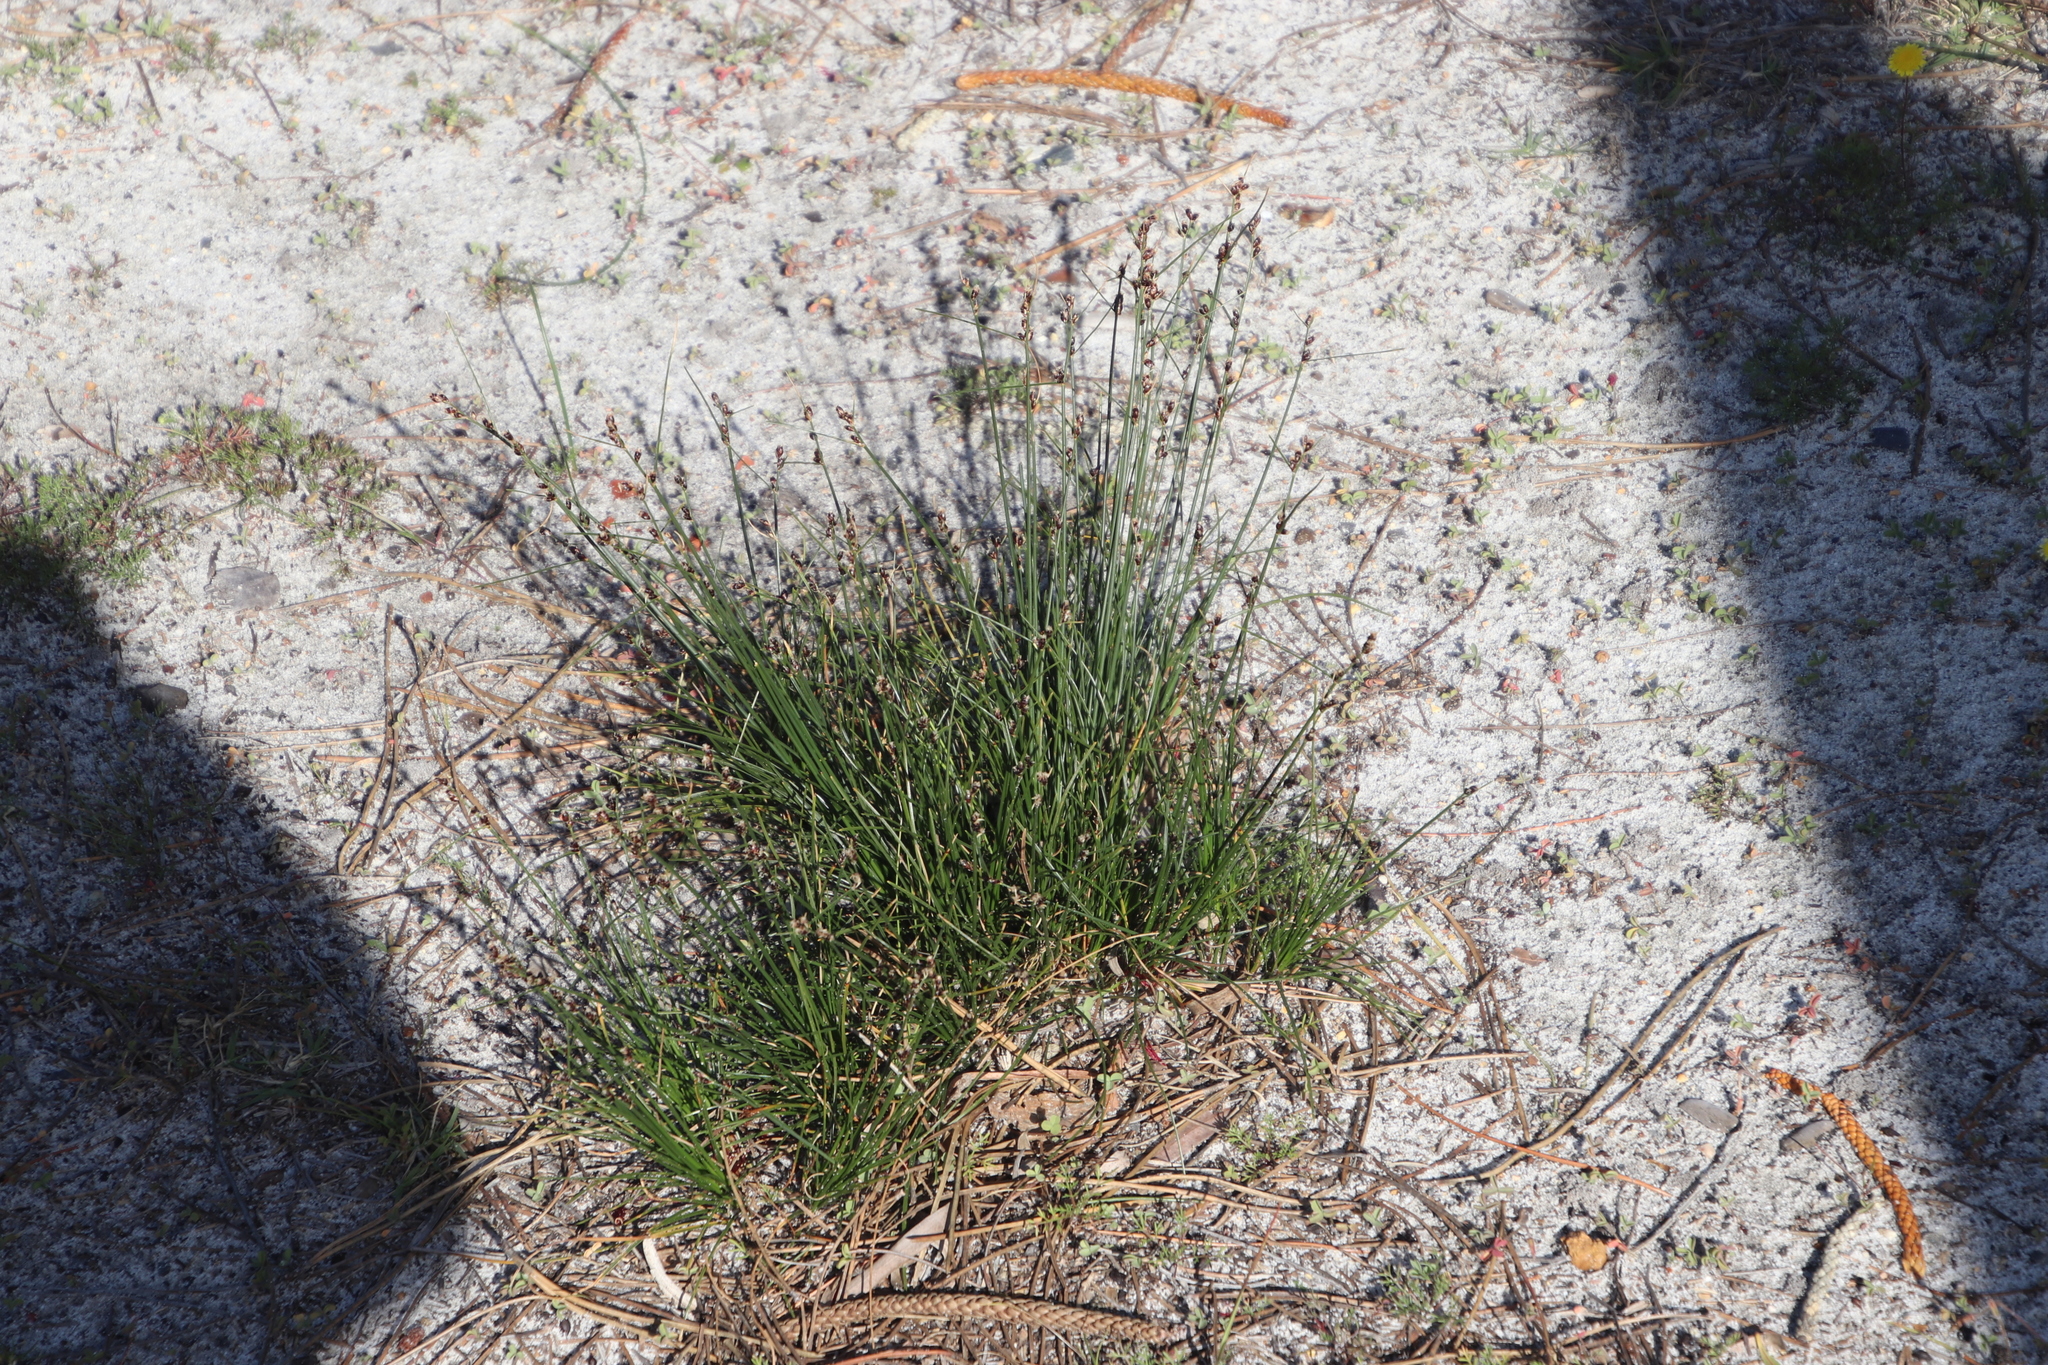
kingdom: Plantae
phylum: Tracheophyta
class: Liliopsida
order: Poales
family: Cyperaceae
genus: Ficinia
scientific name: Ficinia secunda
